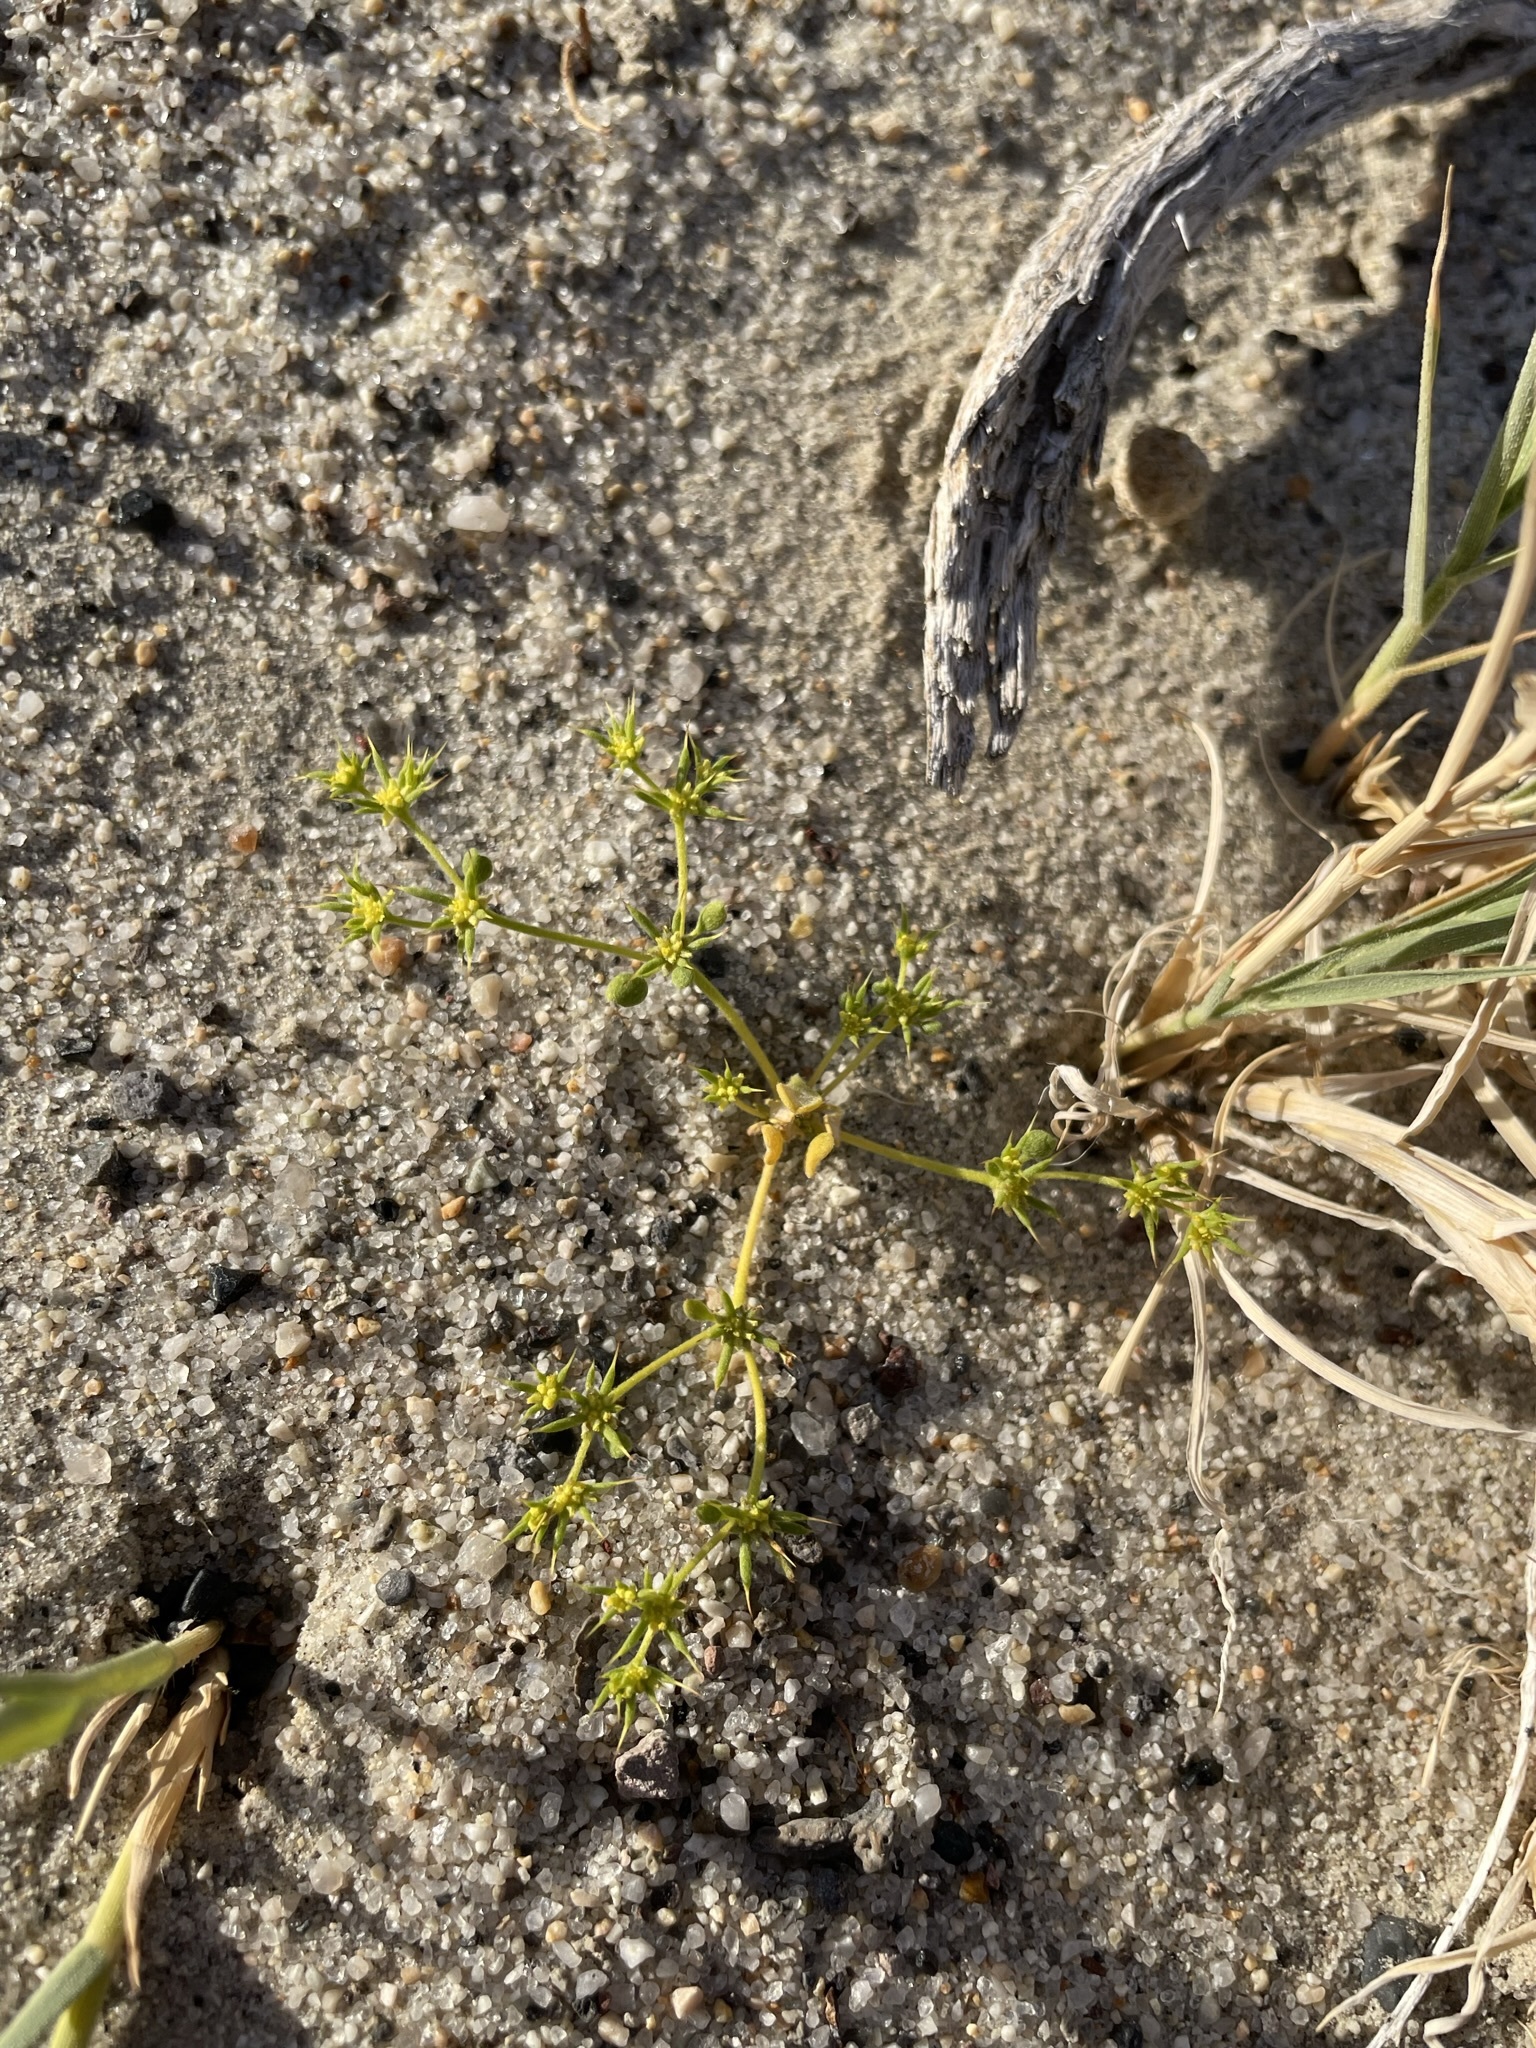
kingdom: Plantae
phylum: Tracheophyta
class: Magnoliopsida
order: Caryophyllales
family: Polygonaceae
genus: Goodmania
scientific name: Goodmania luteola
